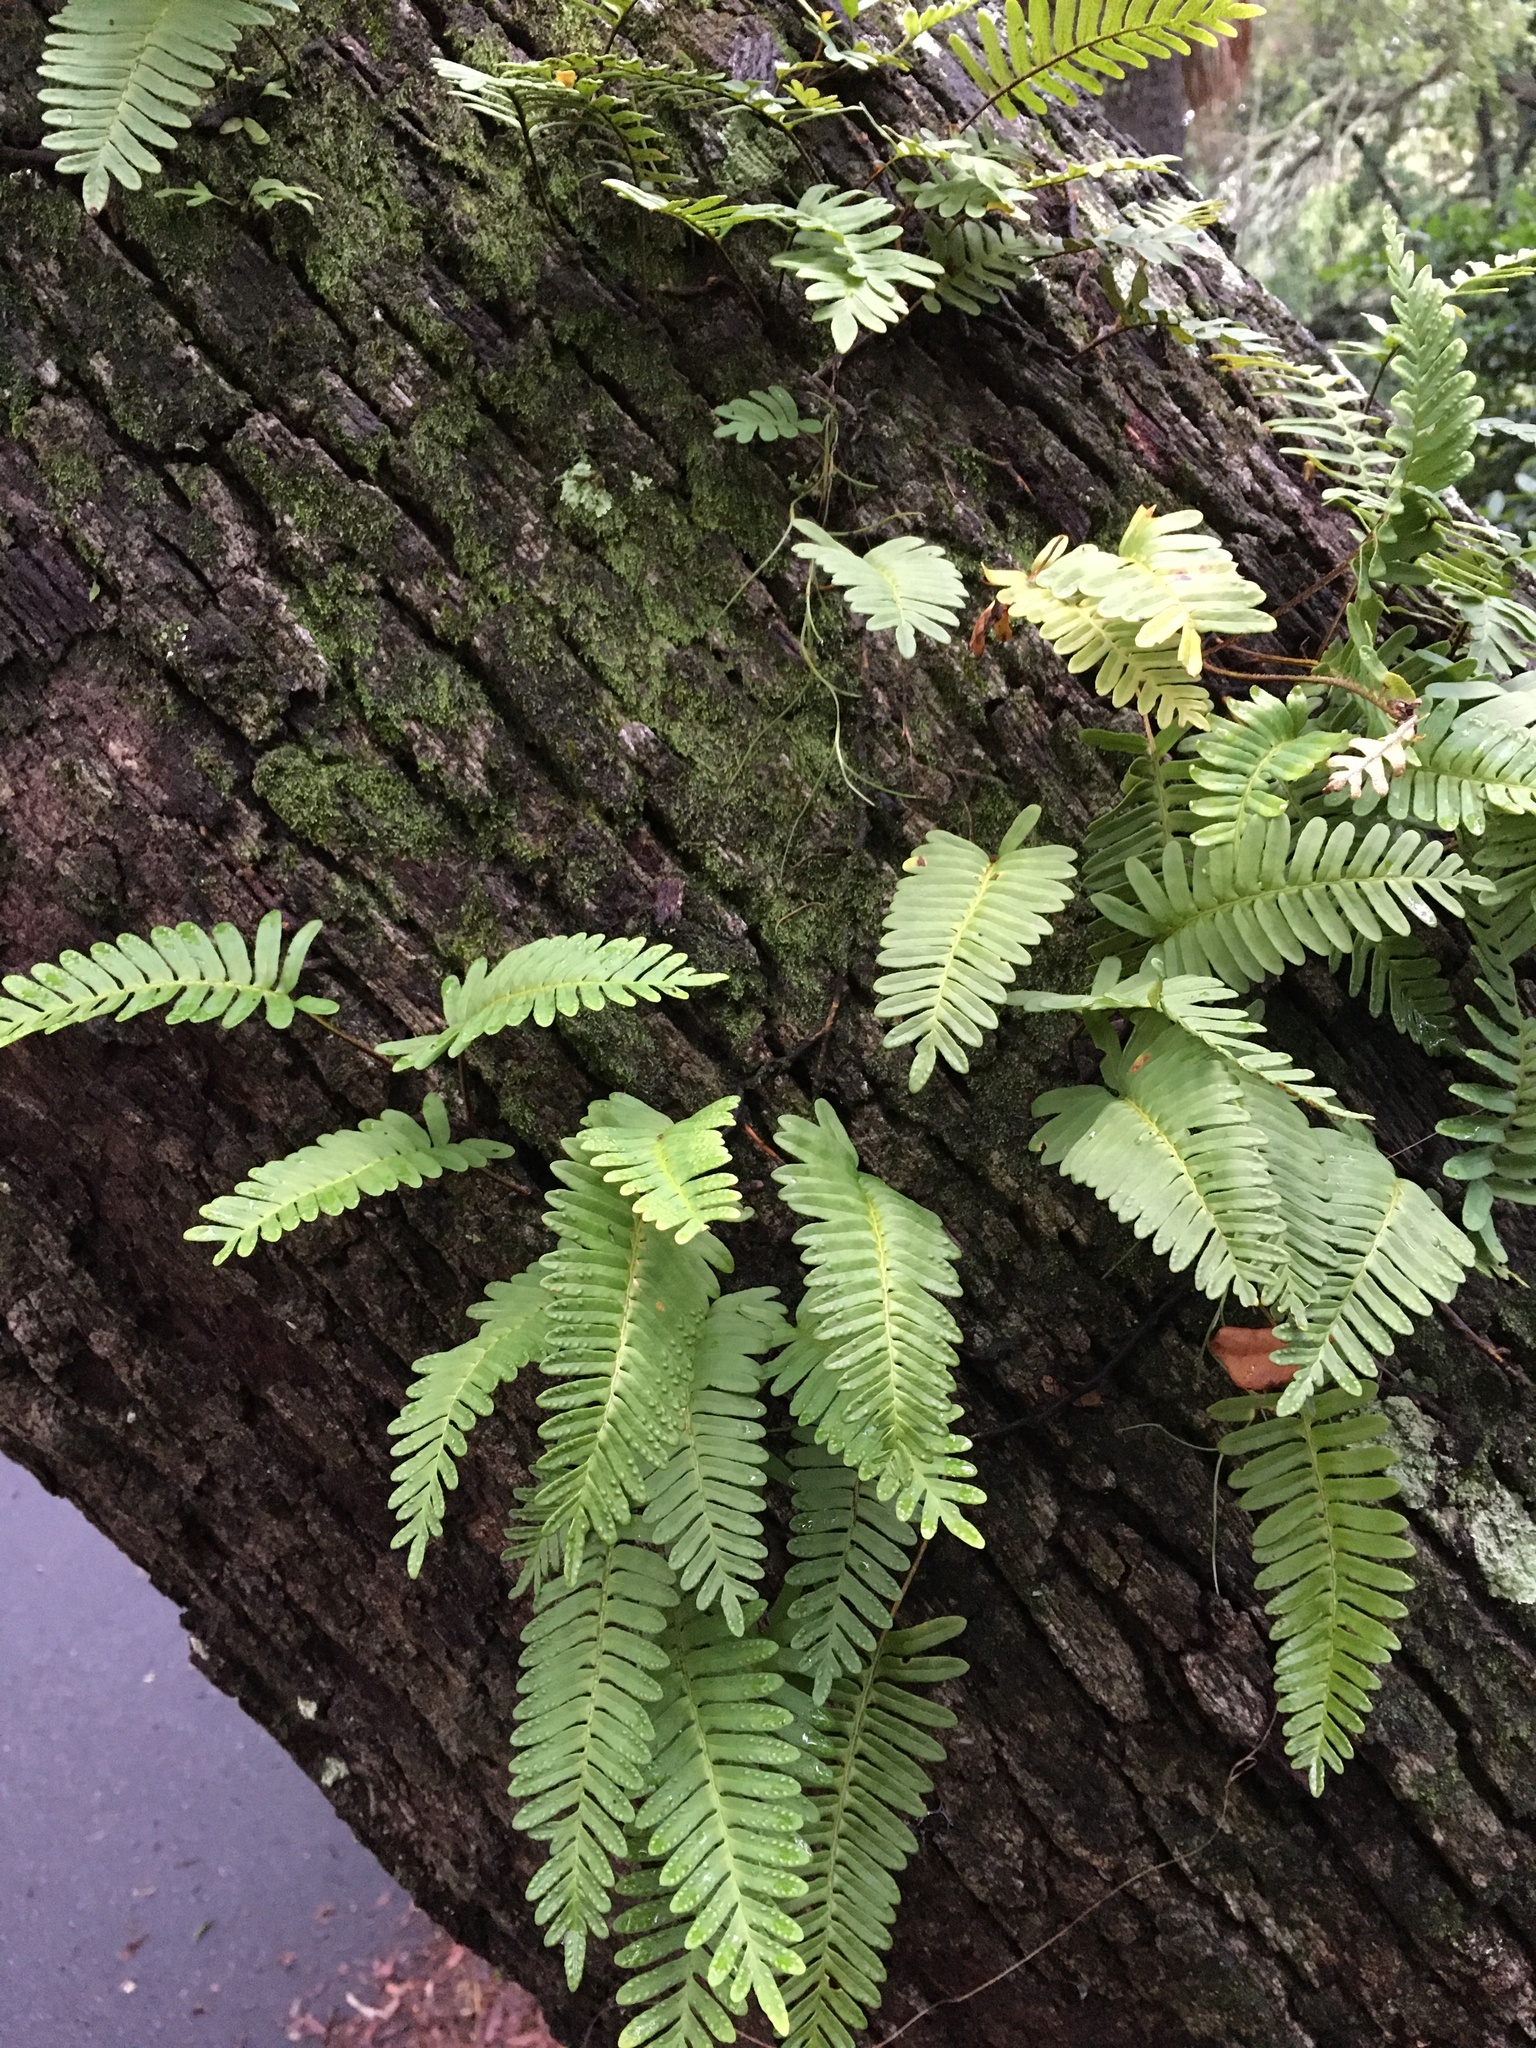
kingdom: Plantae
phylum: Tracheophyta
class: Polypodiopsida
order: Polypodiales
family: Polypodiaceae
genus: Pleopeltis
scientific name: Pleopeltis michauxiana
